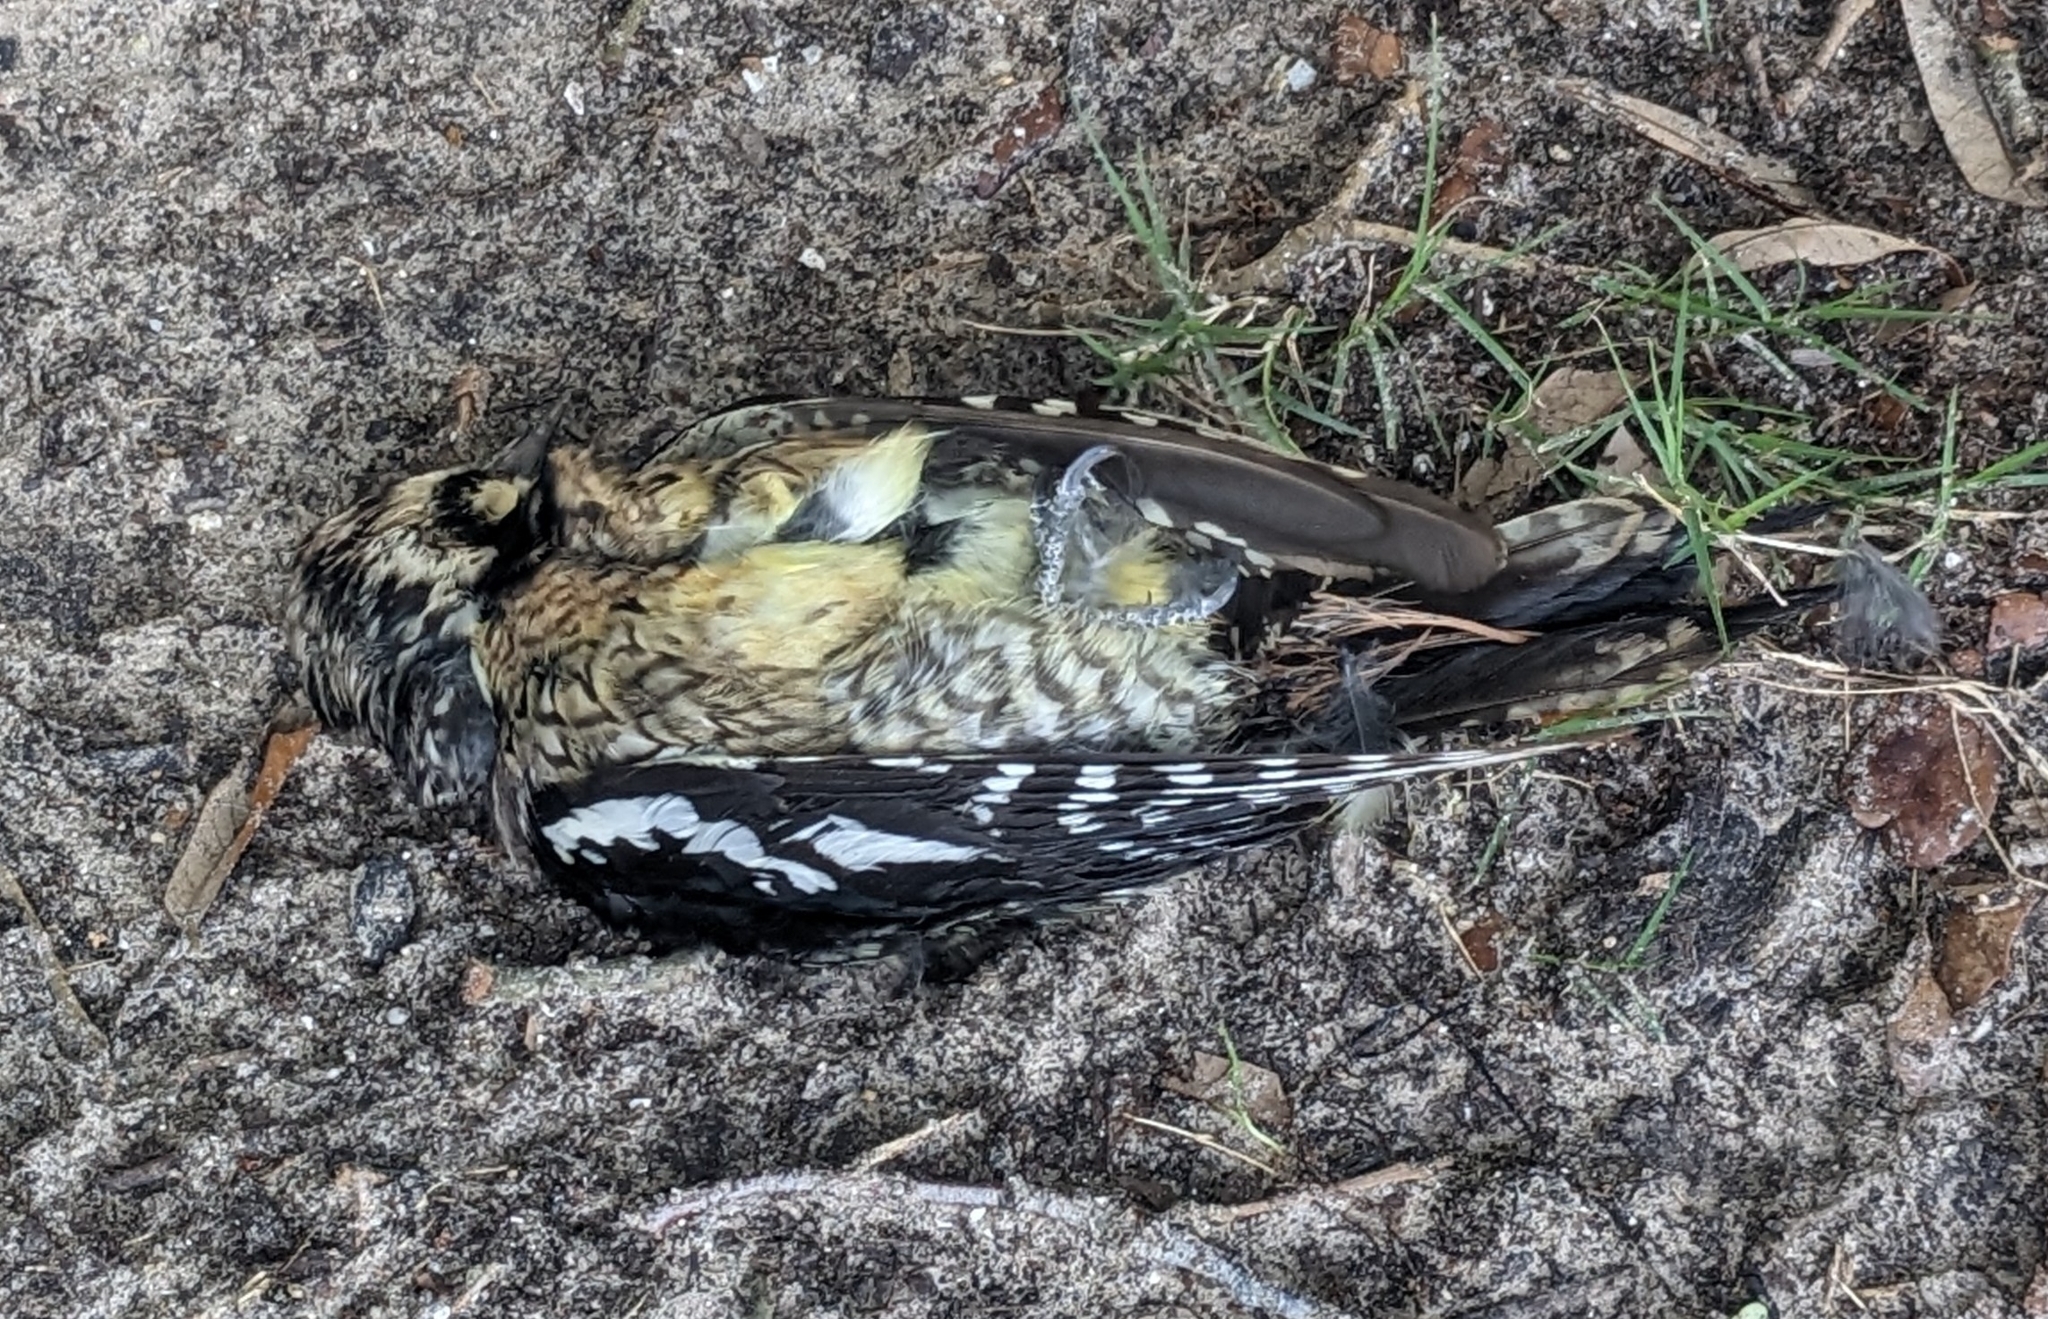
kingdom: Animalia
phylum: Chordata
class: Aves
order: Piciformes
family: Picidae
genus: Sphyrapicus
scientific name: Sphyrapicus varius
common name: Yellow-bellied sapsucker
